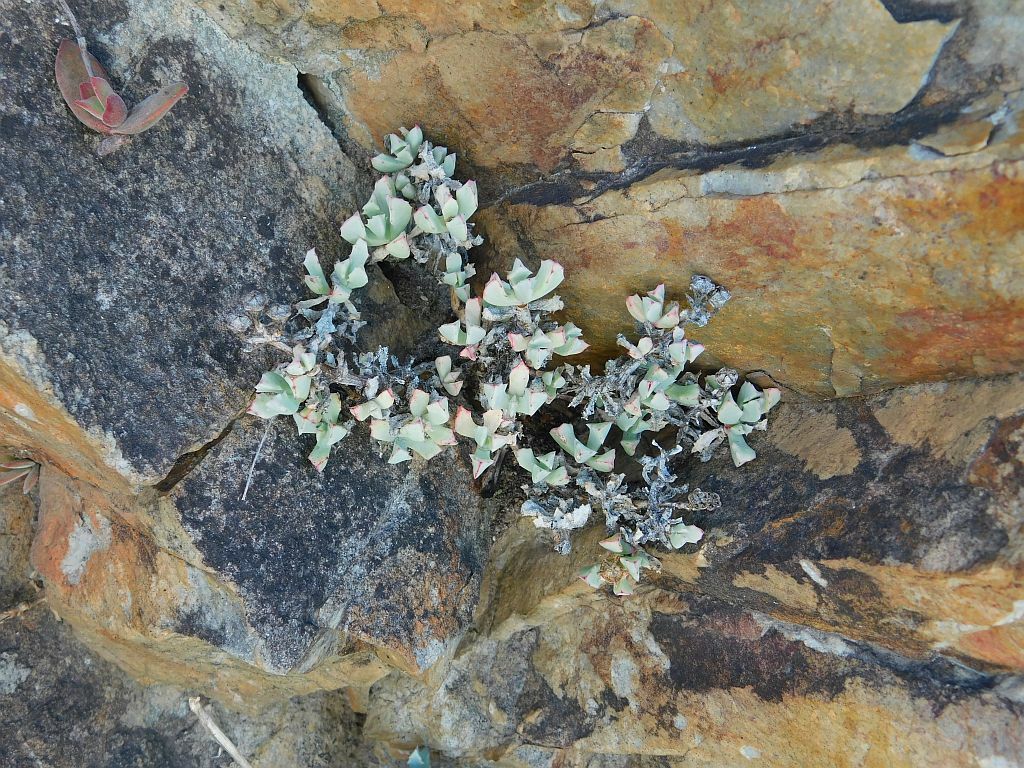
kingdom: Plantae
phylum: Tracheophyta
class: Magnoliopsida
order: Caryophyllales
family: Aizoaceae
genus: Oscularia
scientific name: Oscularia deltoides
